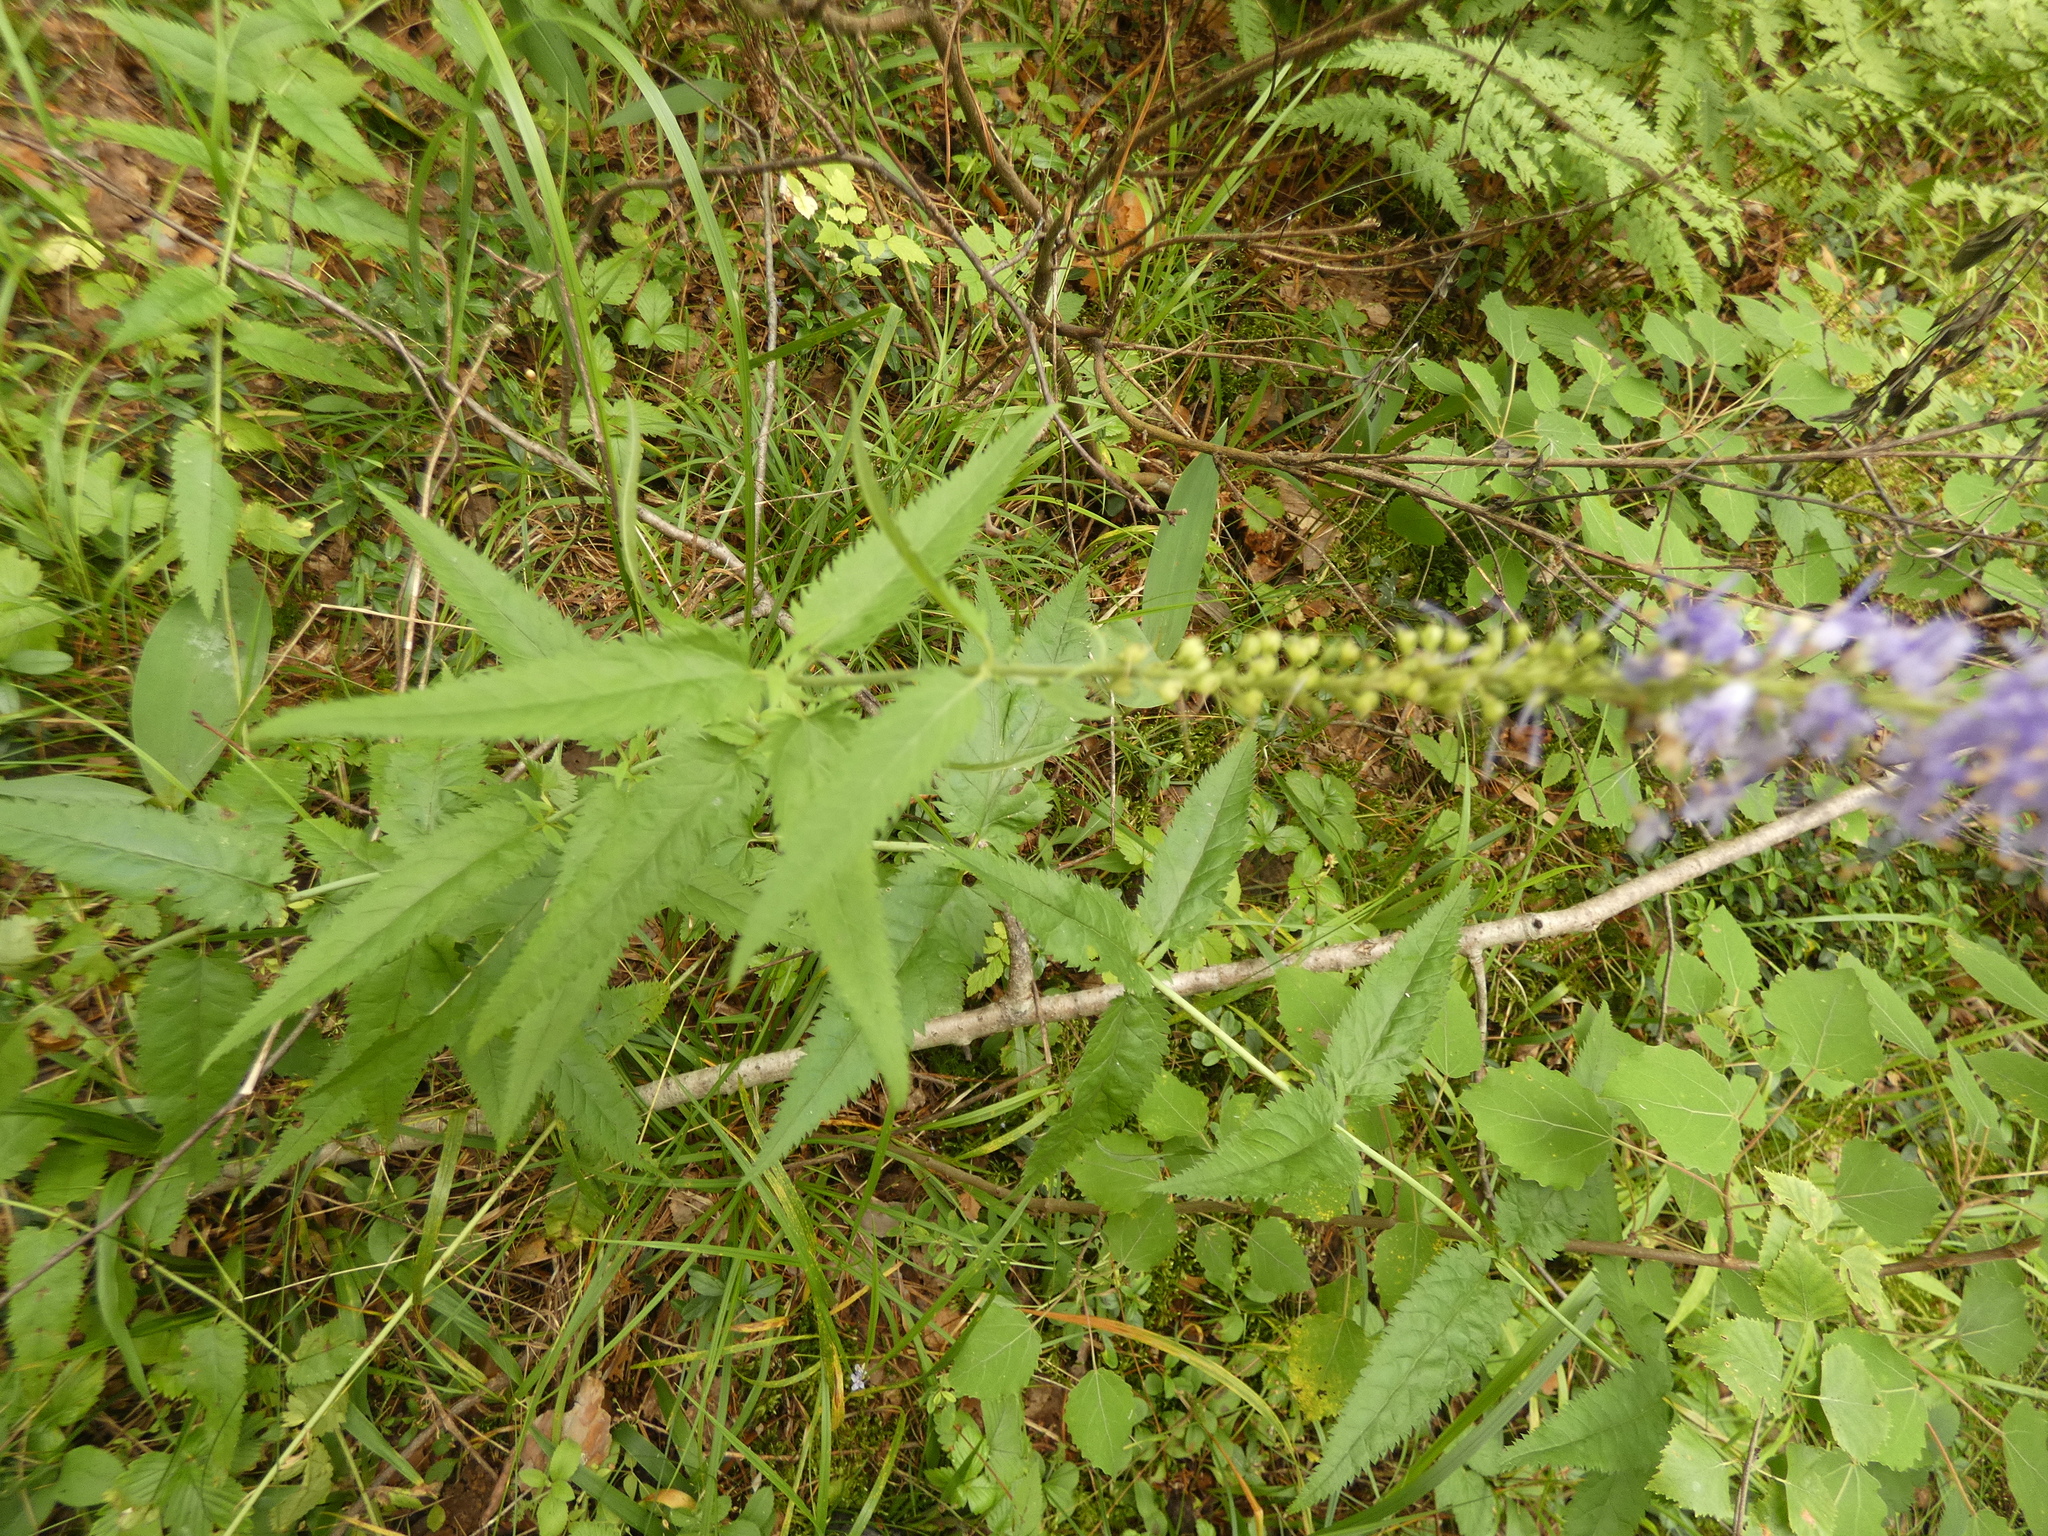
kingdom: Plantae
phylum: Tracheophyta
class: Magnoliopsida
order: Lamiales
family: Plantaginaceae
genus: Veronica
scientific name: Veronica longifolia
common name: Garden speedwell
